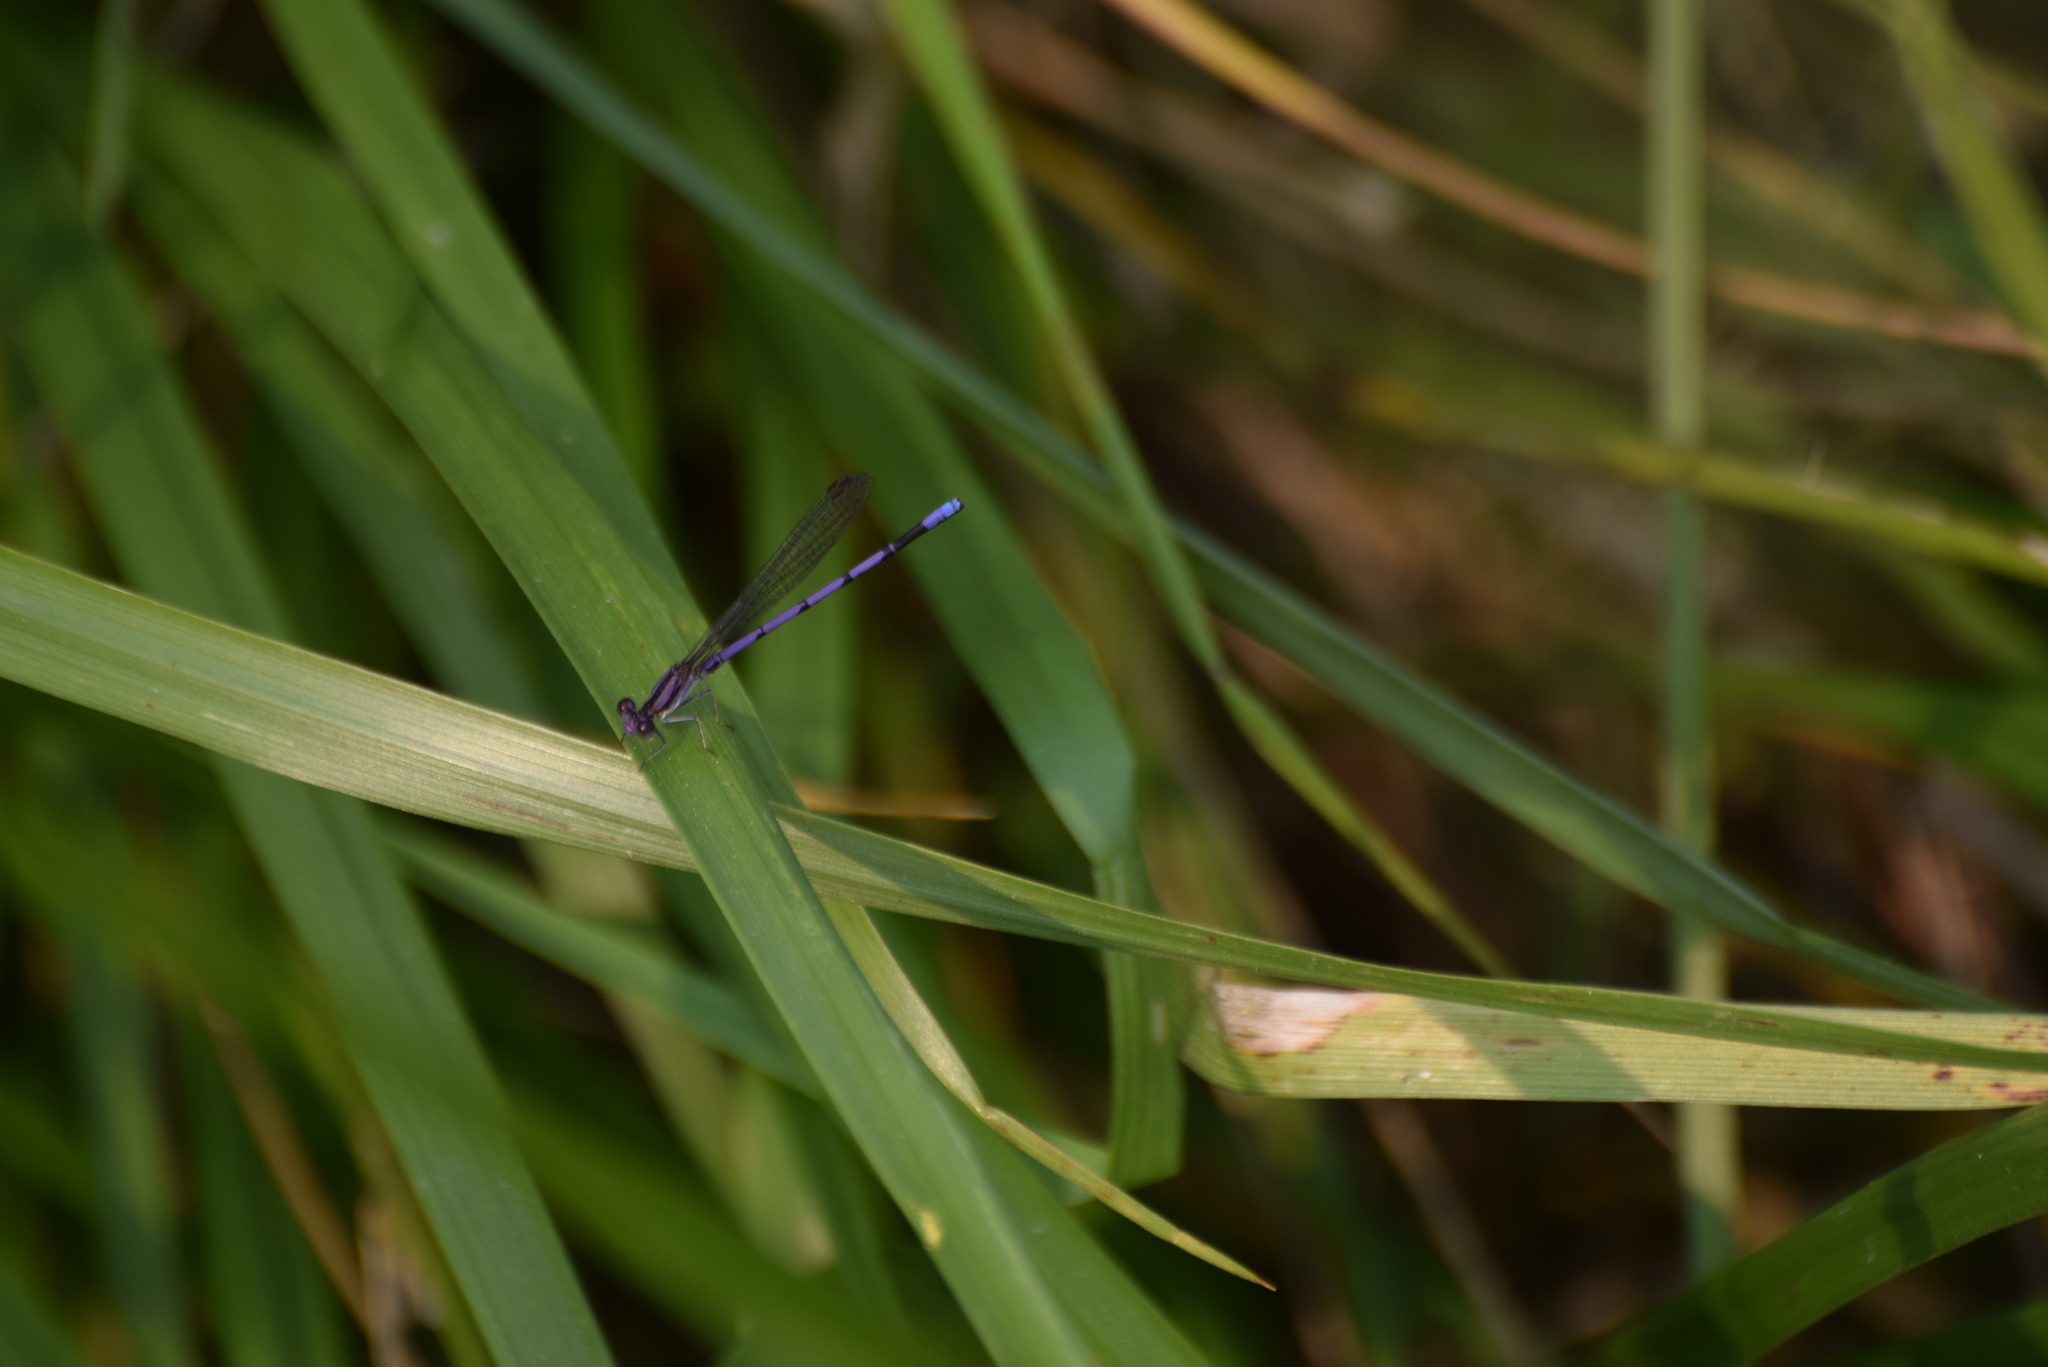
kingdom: Animalia
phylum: Arthropoda
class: Insecta
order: Odonata
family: Coenagrionidae
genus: Argia
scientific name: Argia fumipennis
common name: Variable dancer
